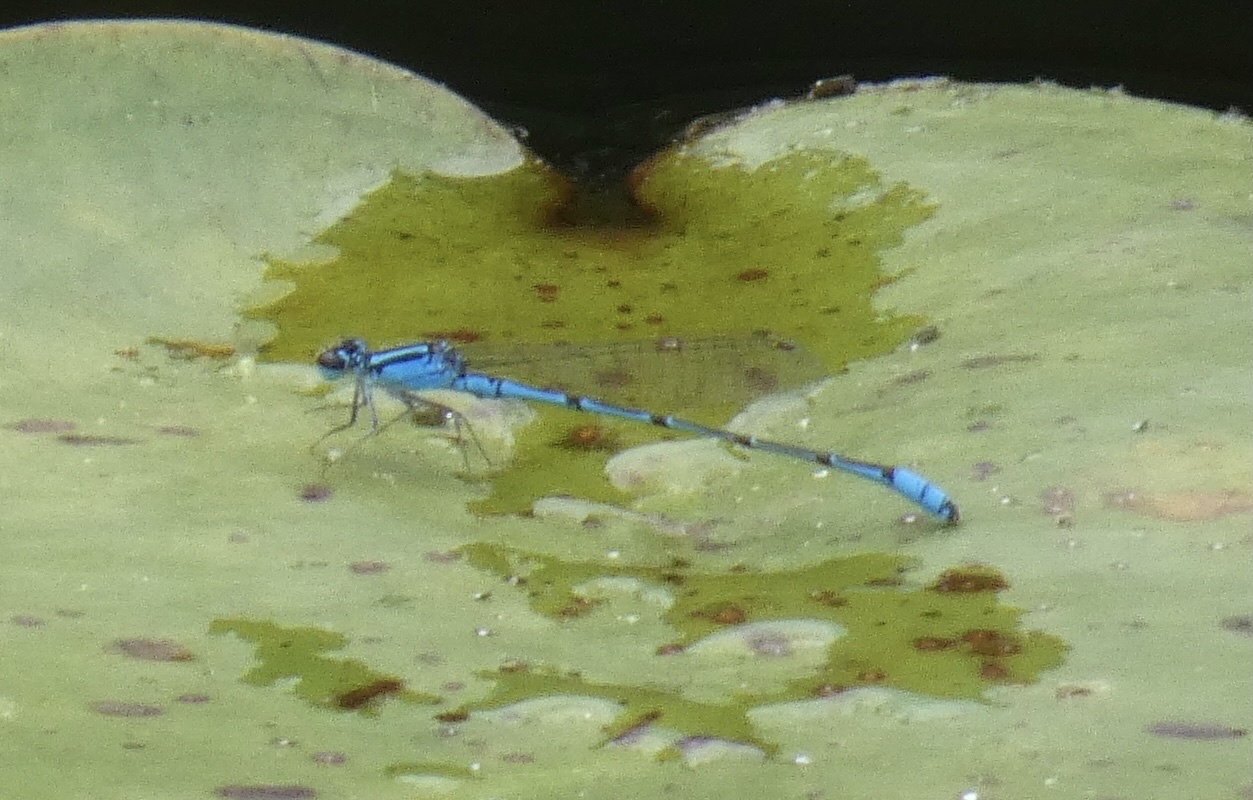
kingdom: Animalia
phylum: Arthropoda
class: Insecta
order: Odonata
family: Coenagrionidae
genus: Acanthagrion
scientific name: Acanthagrion temporale
